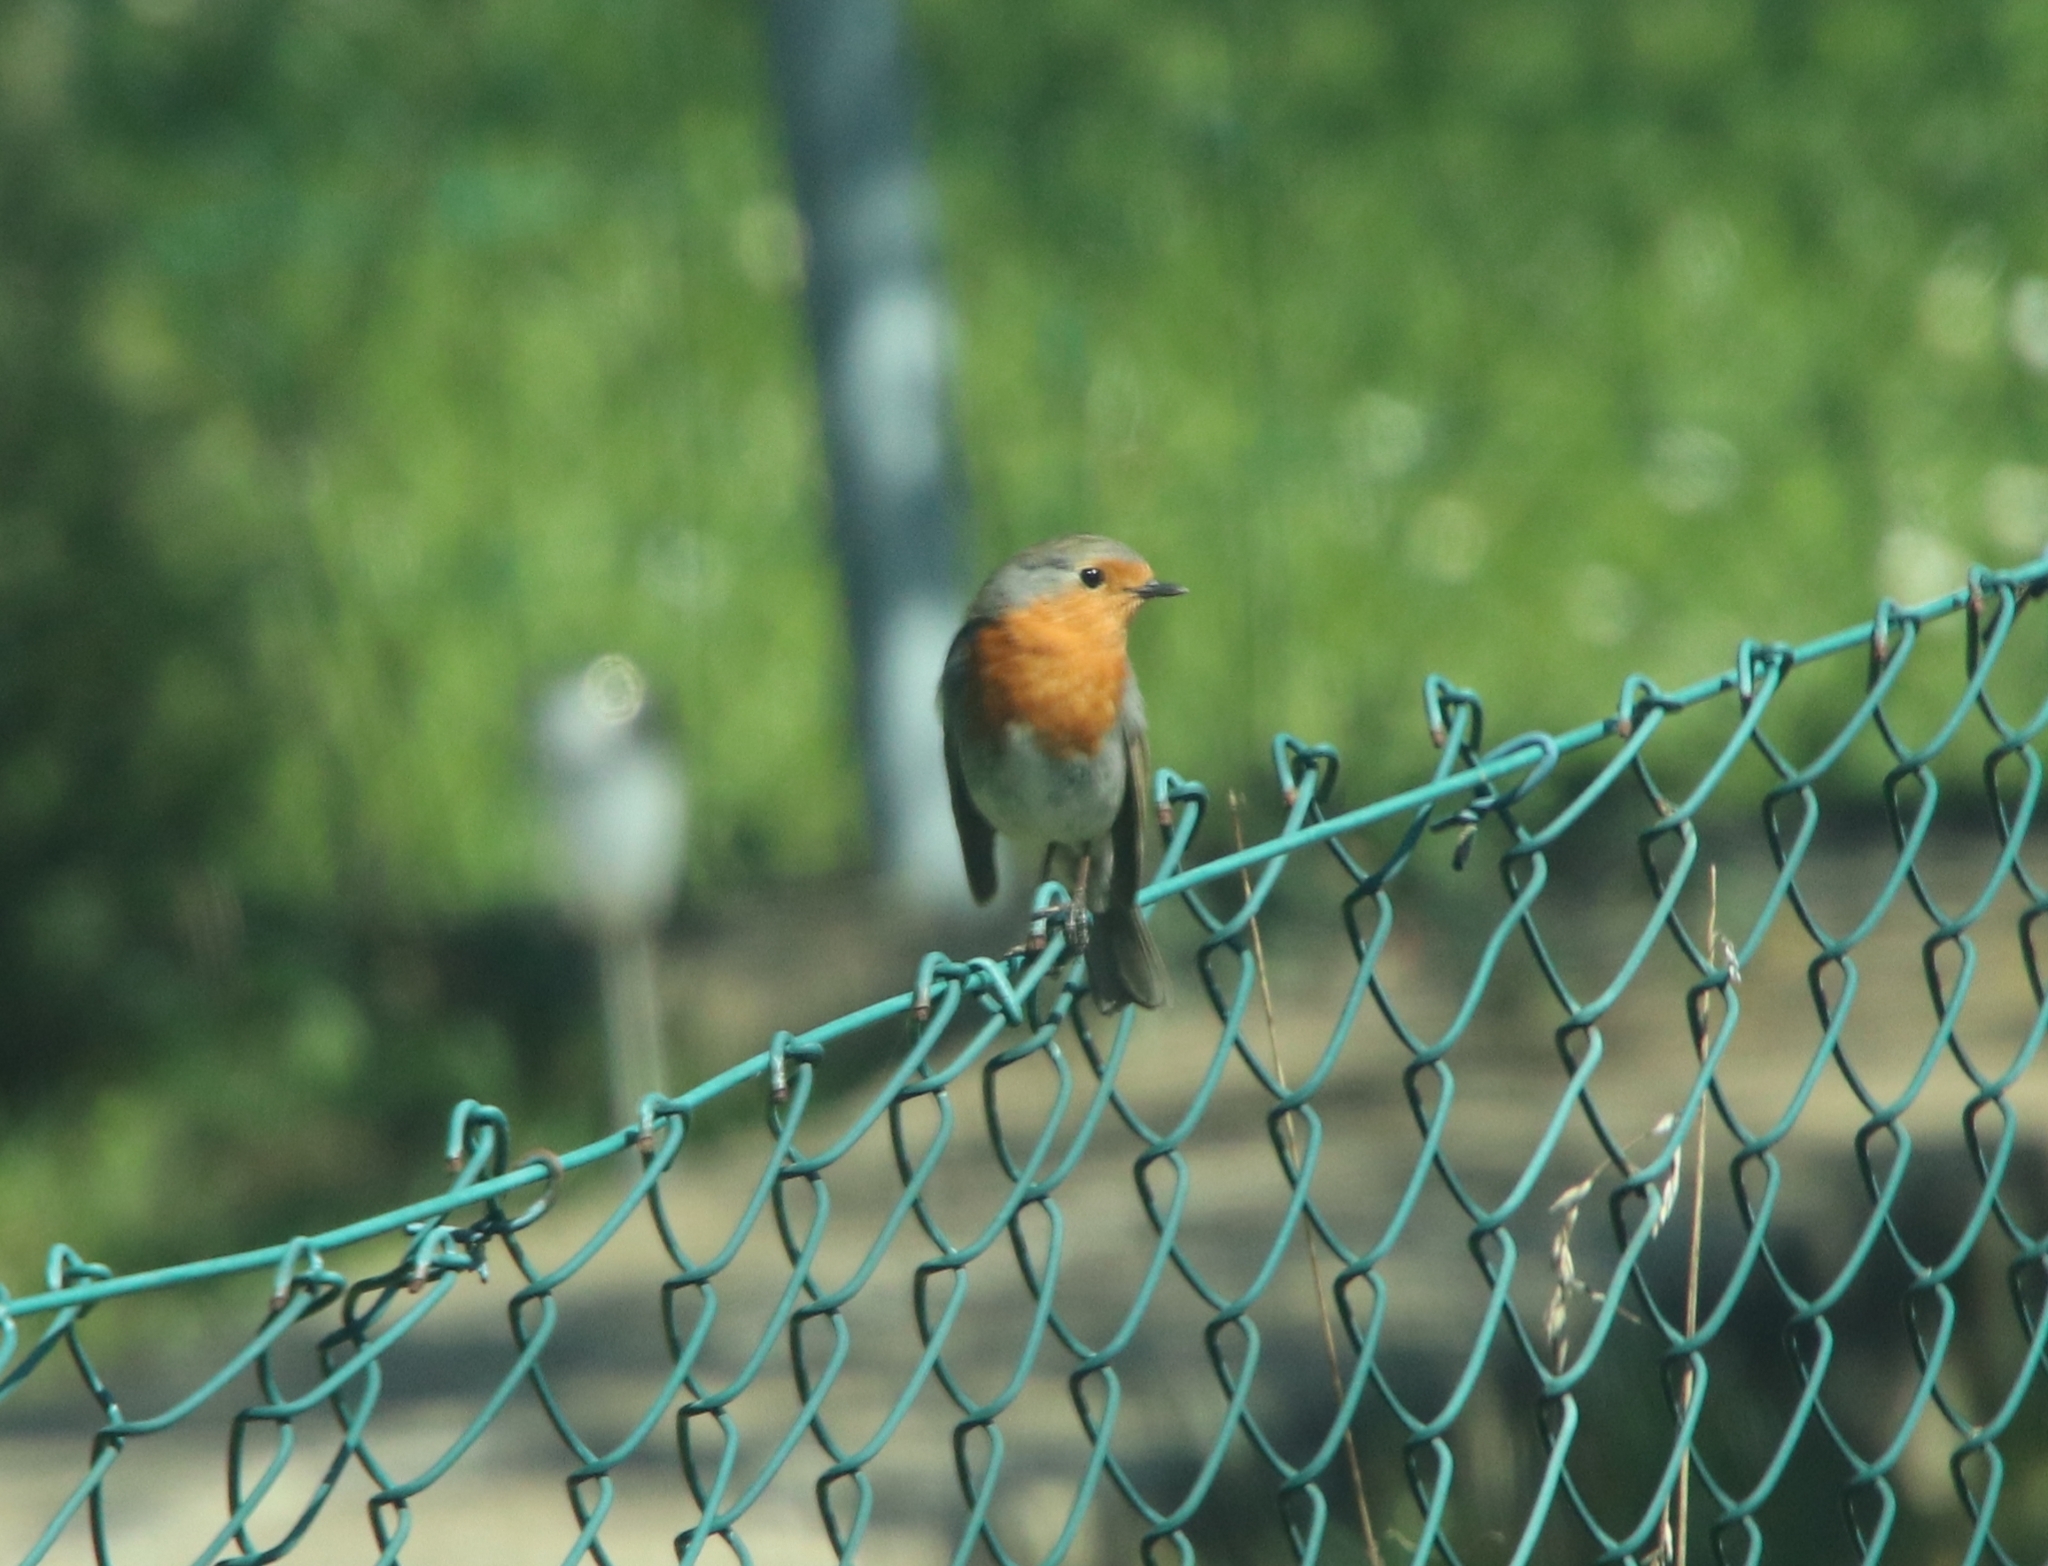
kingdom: Animalia
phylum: Chordata
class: Aves
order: Passeriformes
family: Muscicapidae
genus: Erithacus
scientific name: Erithacus rubecula
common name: European robin
